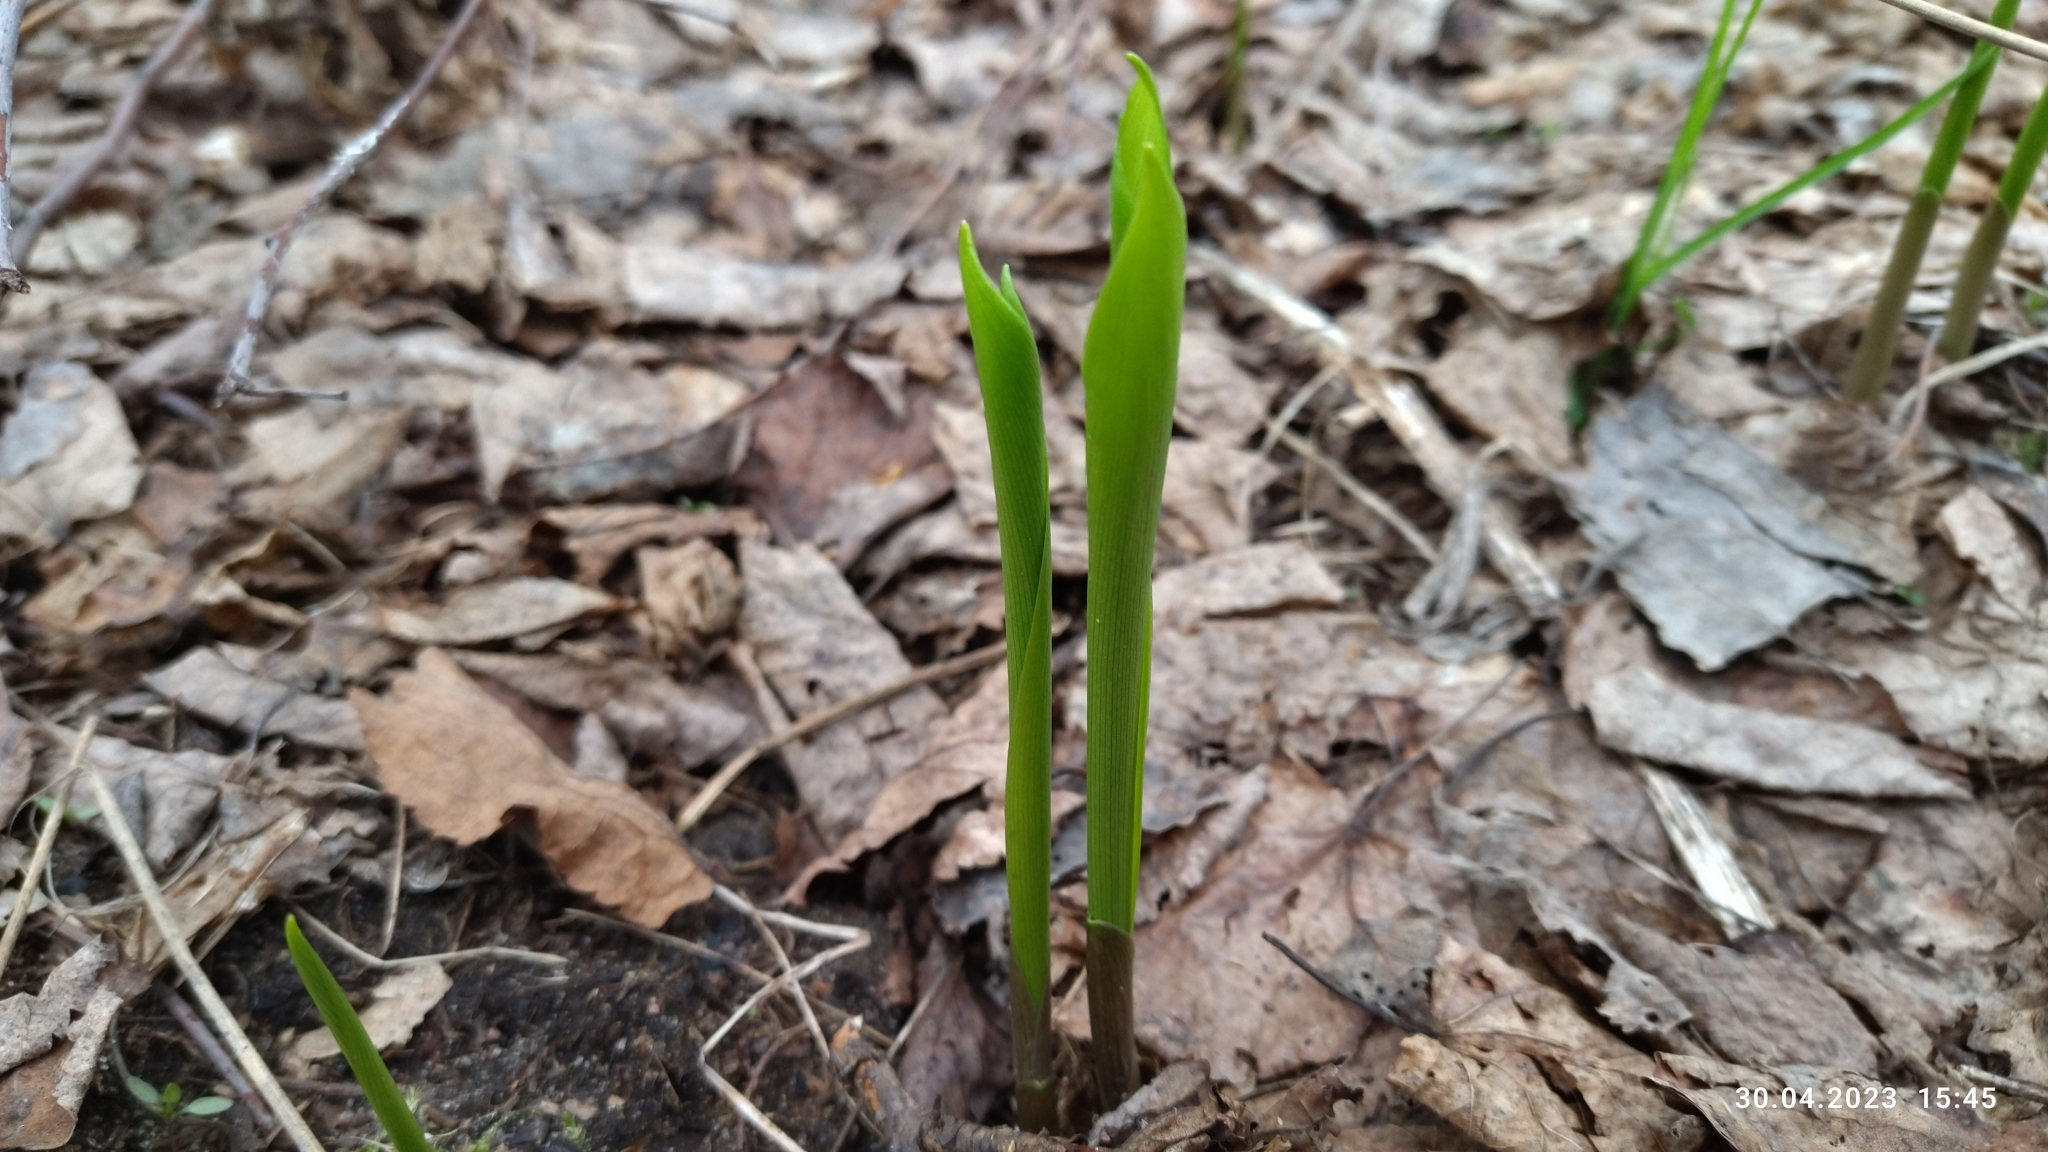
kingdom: Plantae
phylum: Tracheophyta
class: Liliopsida
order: Asparagales
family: Asparagaceae
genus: Convallaria
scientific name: Convallaria majalis
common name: Lily-of-the-valley
